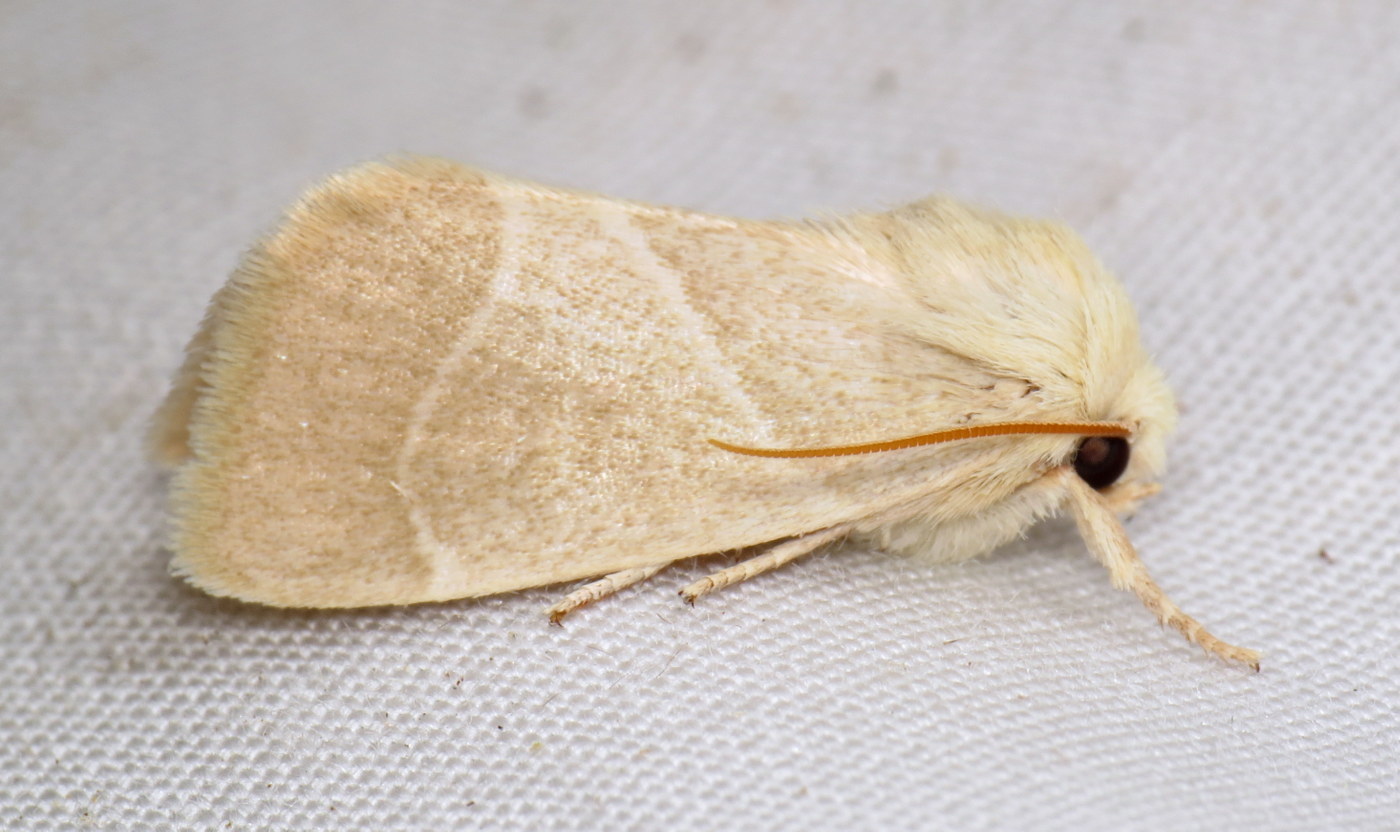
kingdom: Animalia
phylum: Arthropoda
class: Insecta
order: Lepidoptera
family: Noctuidae
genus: Cosmia
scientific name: Cosmia calami
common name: American dun-bar moth
